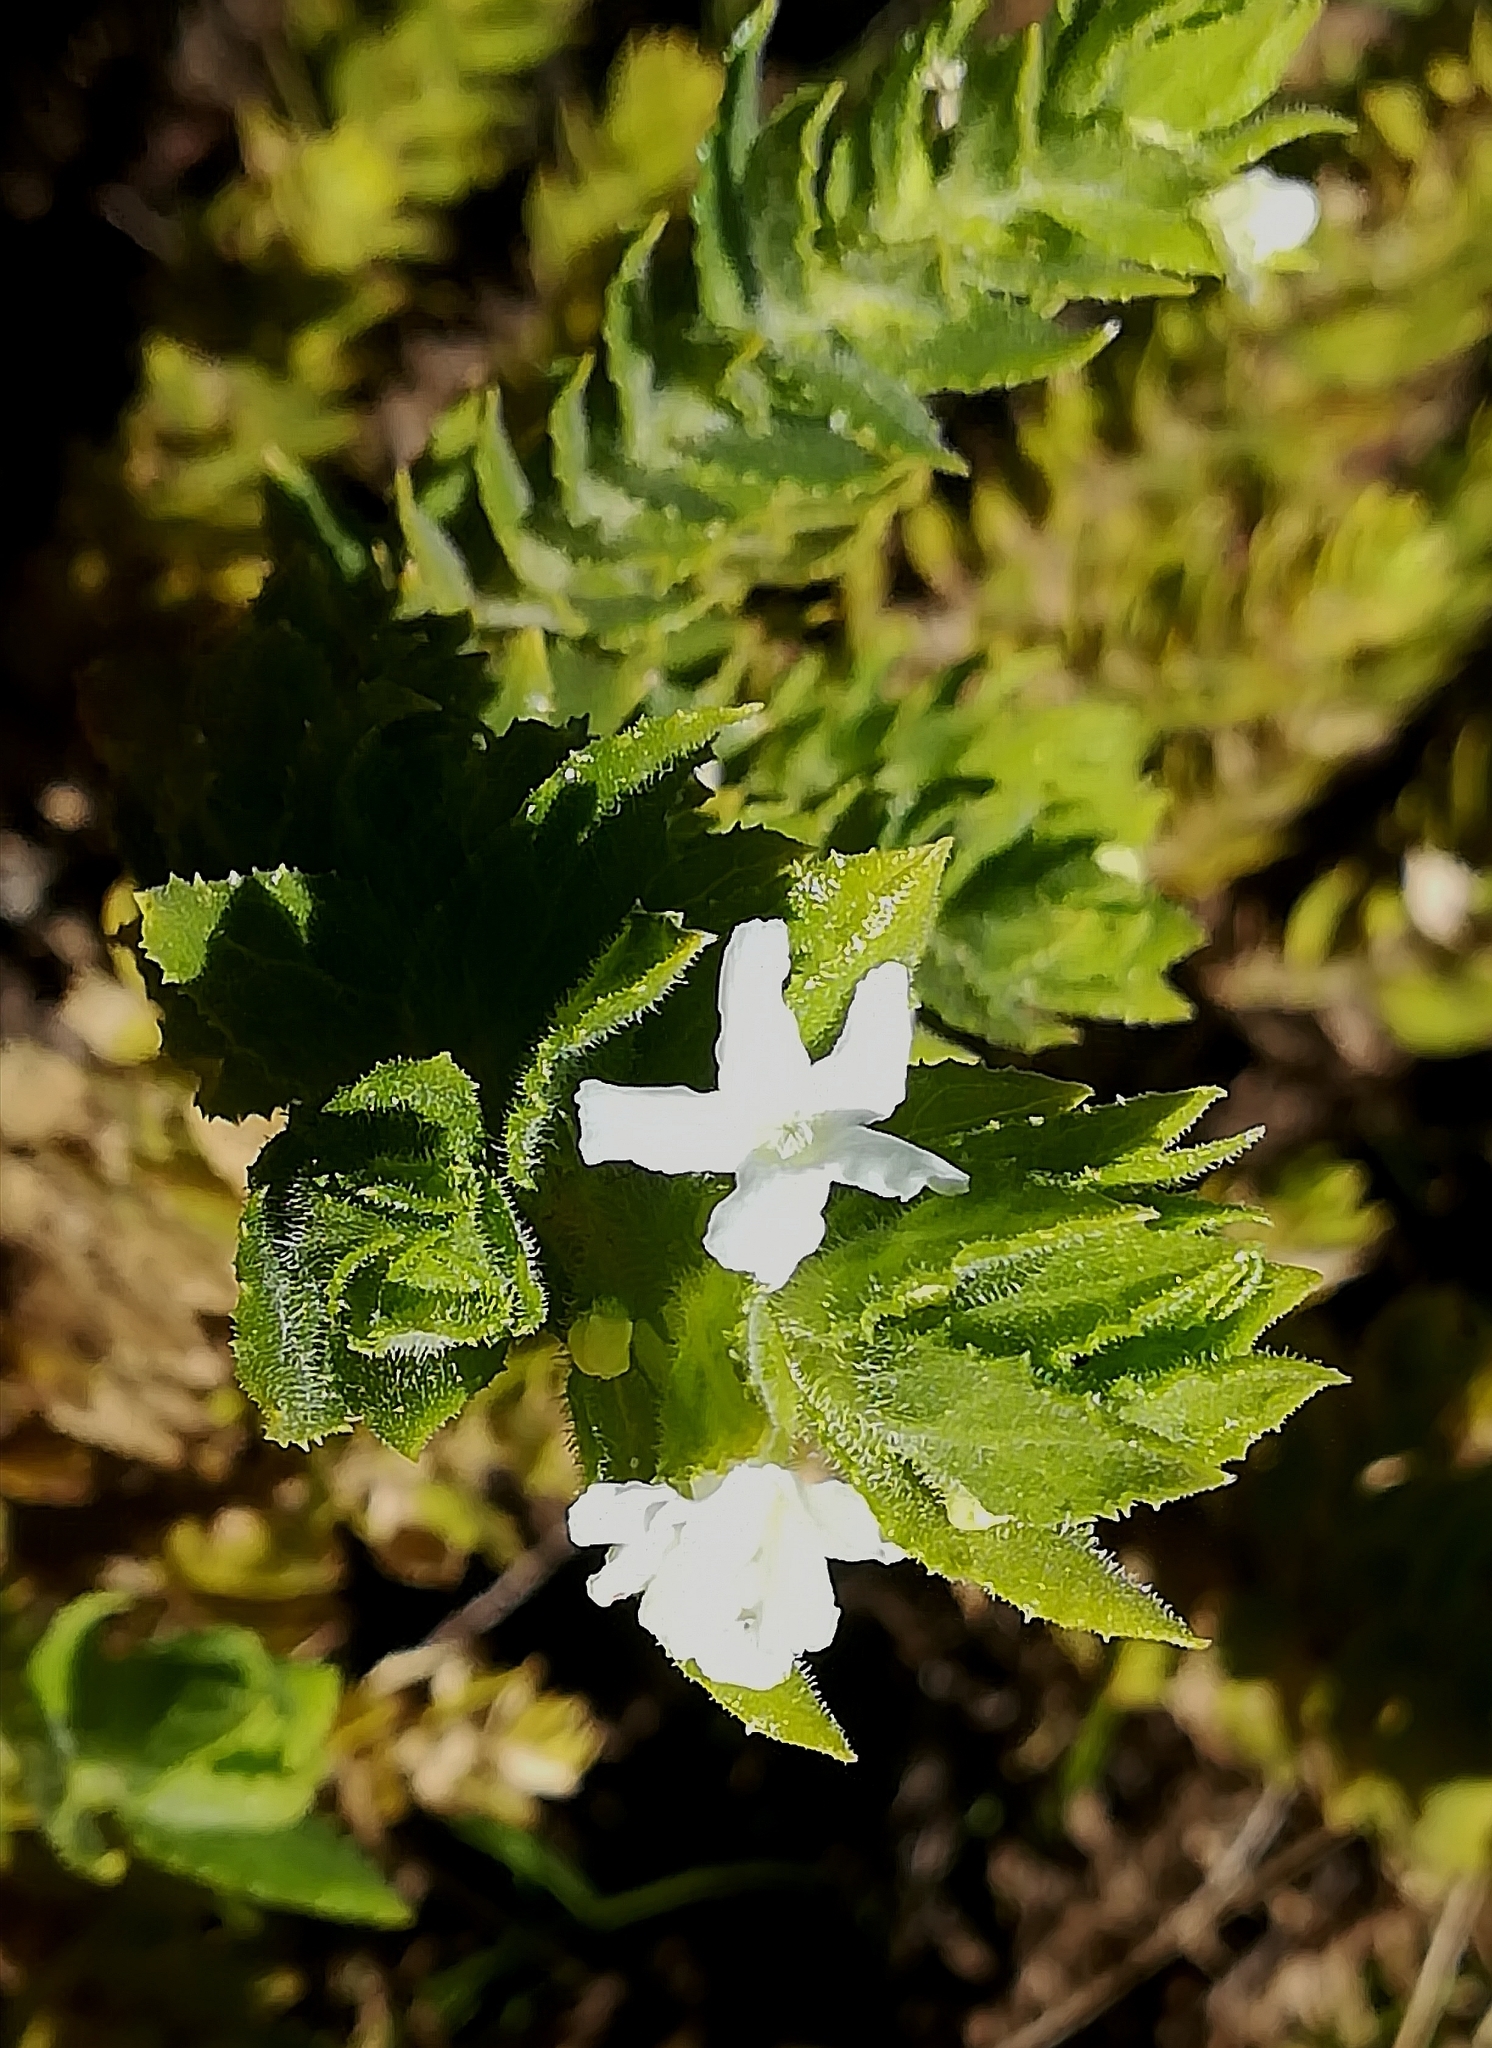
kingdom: Plantae
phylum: Tracheophyta
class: Magnoliopsida
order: Lamiales
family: Scrophulariaceae
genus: Oftia
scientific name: Oftia africana
